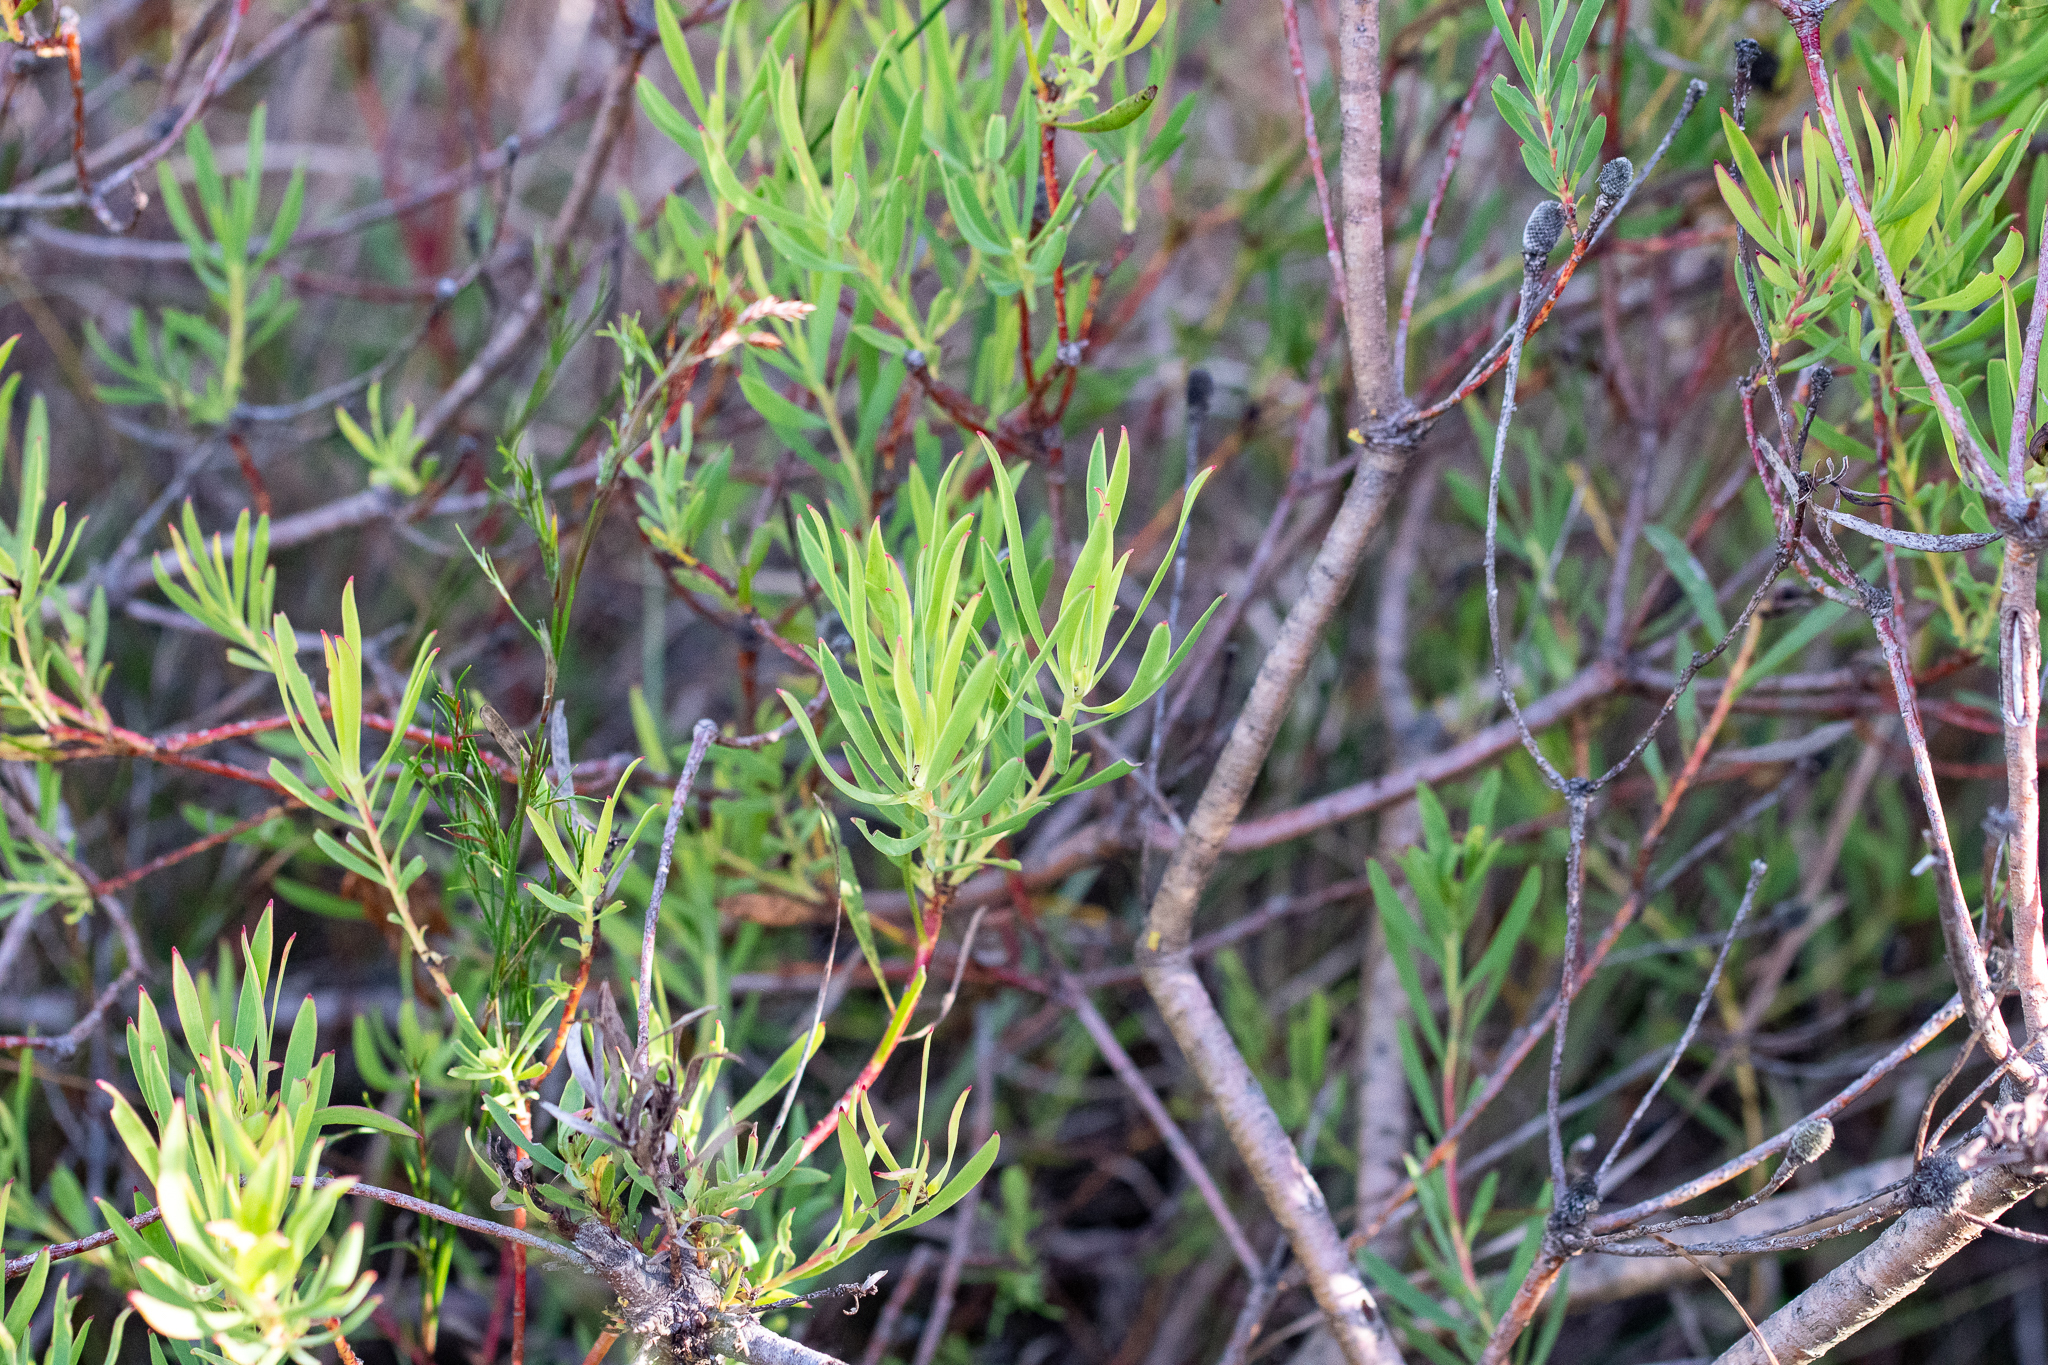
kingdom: Plantae
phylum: Tracheophyta
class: Magnoliopsida
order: Proteales
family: Proteaceae
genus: Leucadendron
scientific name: Leucadendron spissifolium
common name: Spear-leaf conebush
